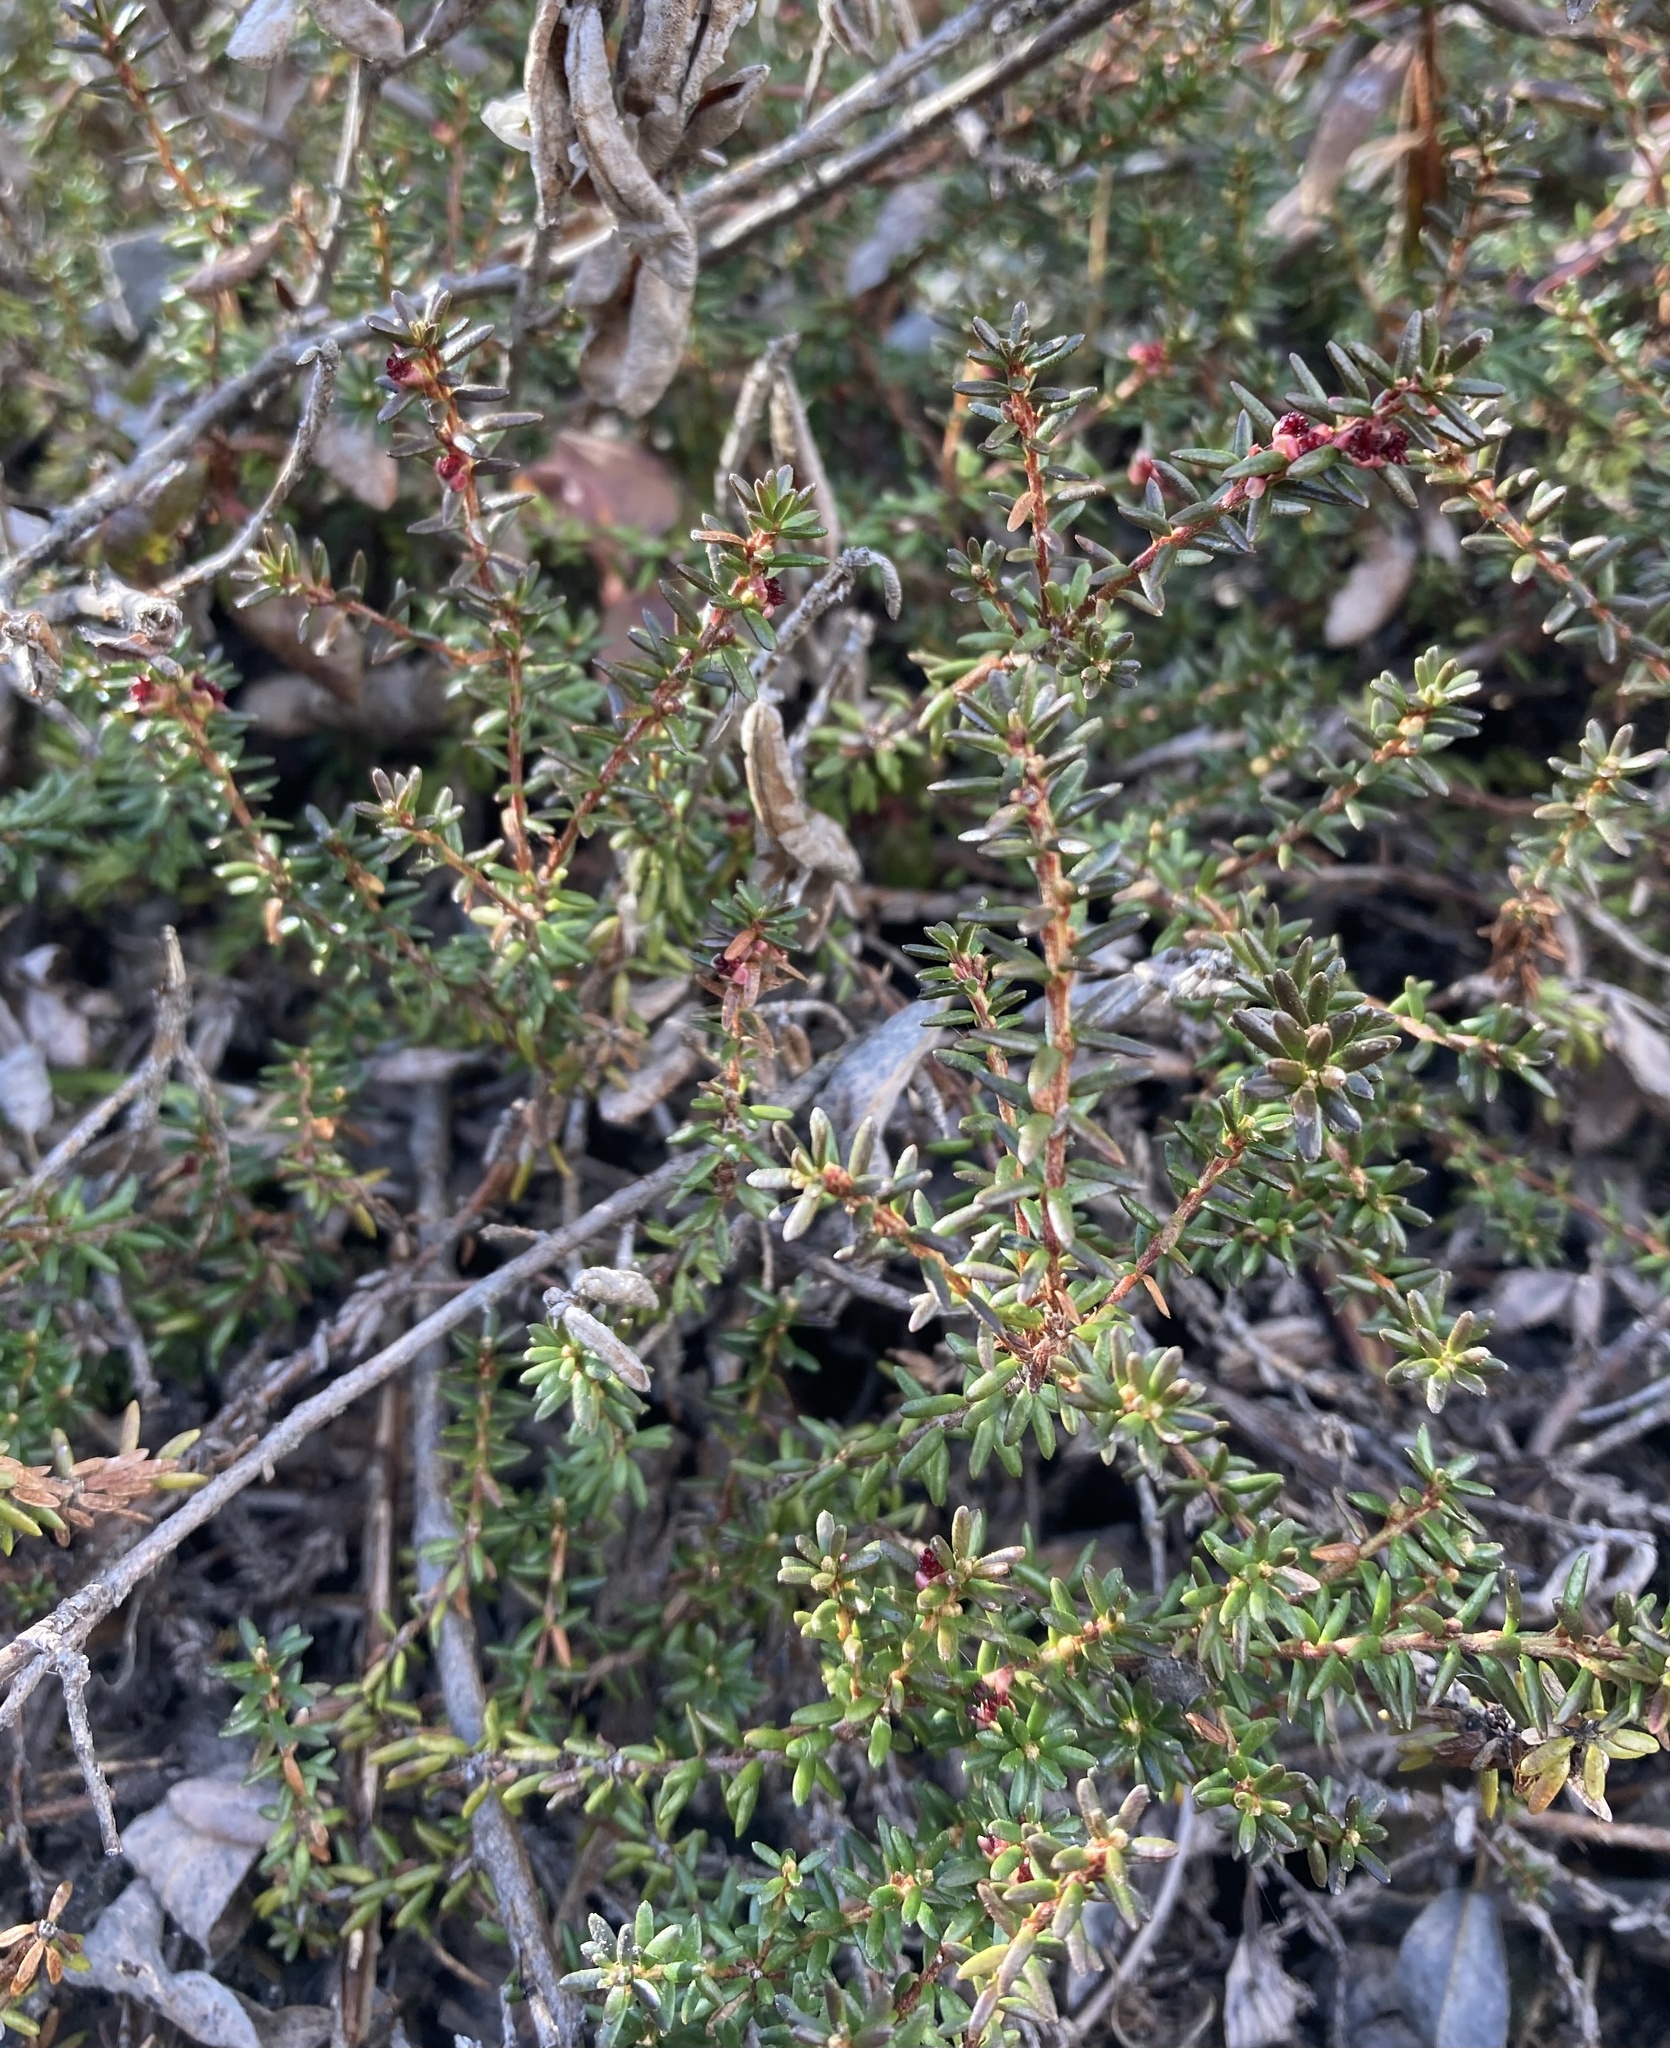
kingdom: Plantae
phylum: Tracheophyta
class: Magnoliopsida
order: Ericales
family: Ericaceae
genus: Empetrum
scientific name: Empetrum nigrum
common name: Black crowberry
